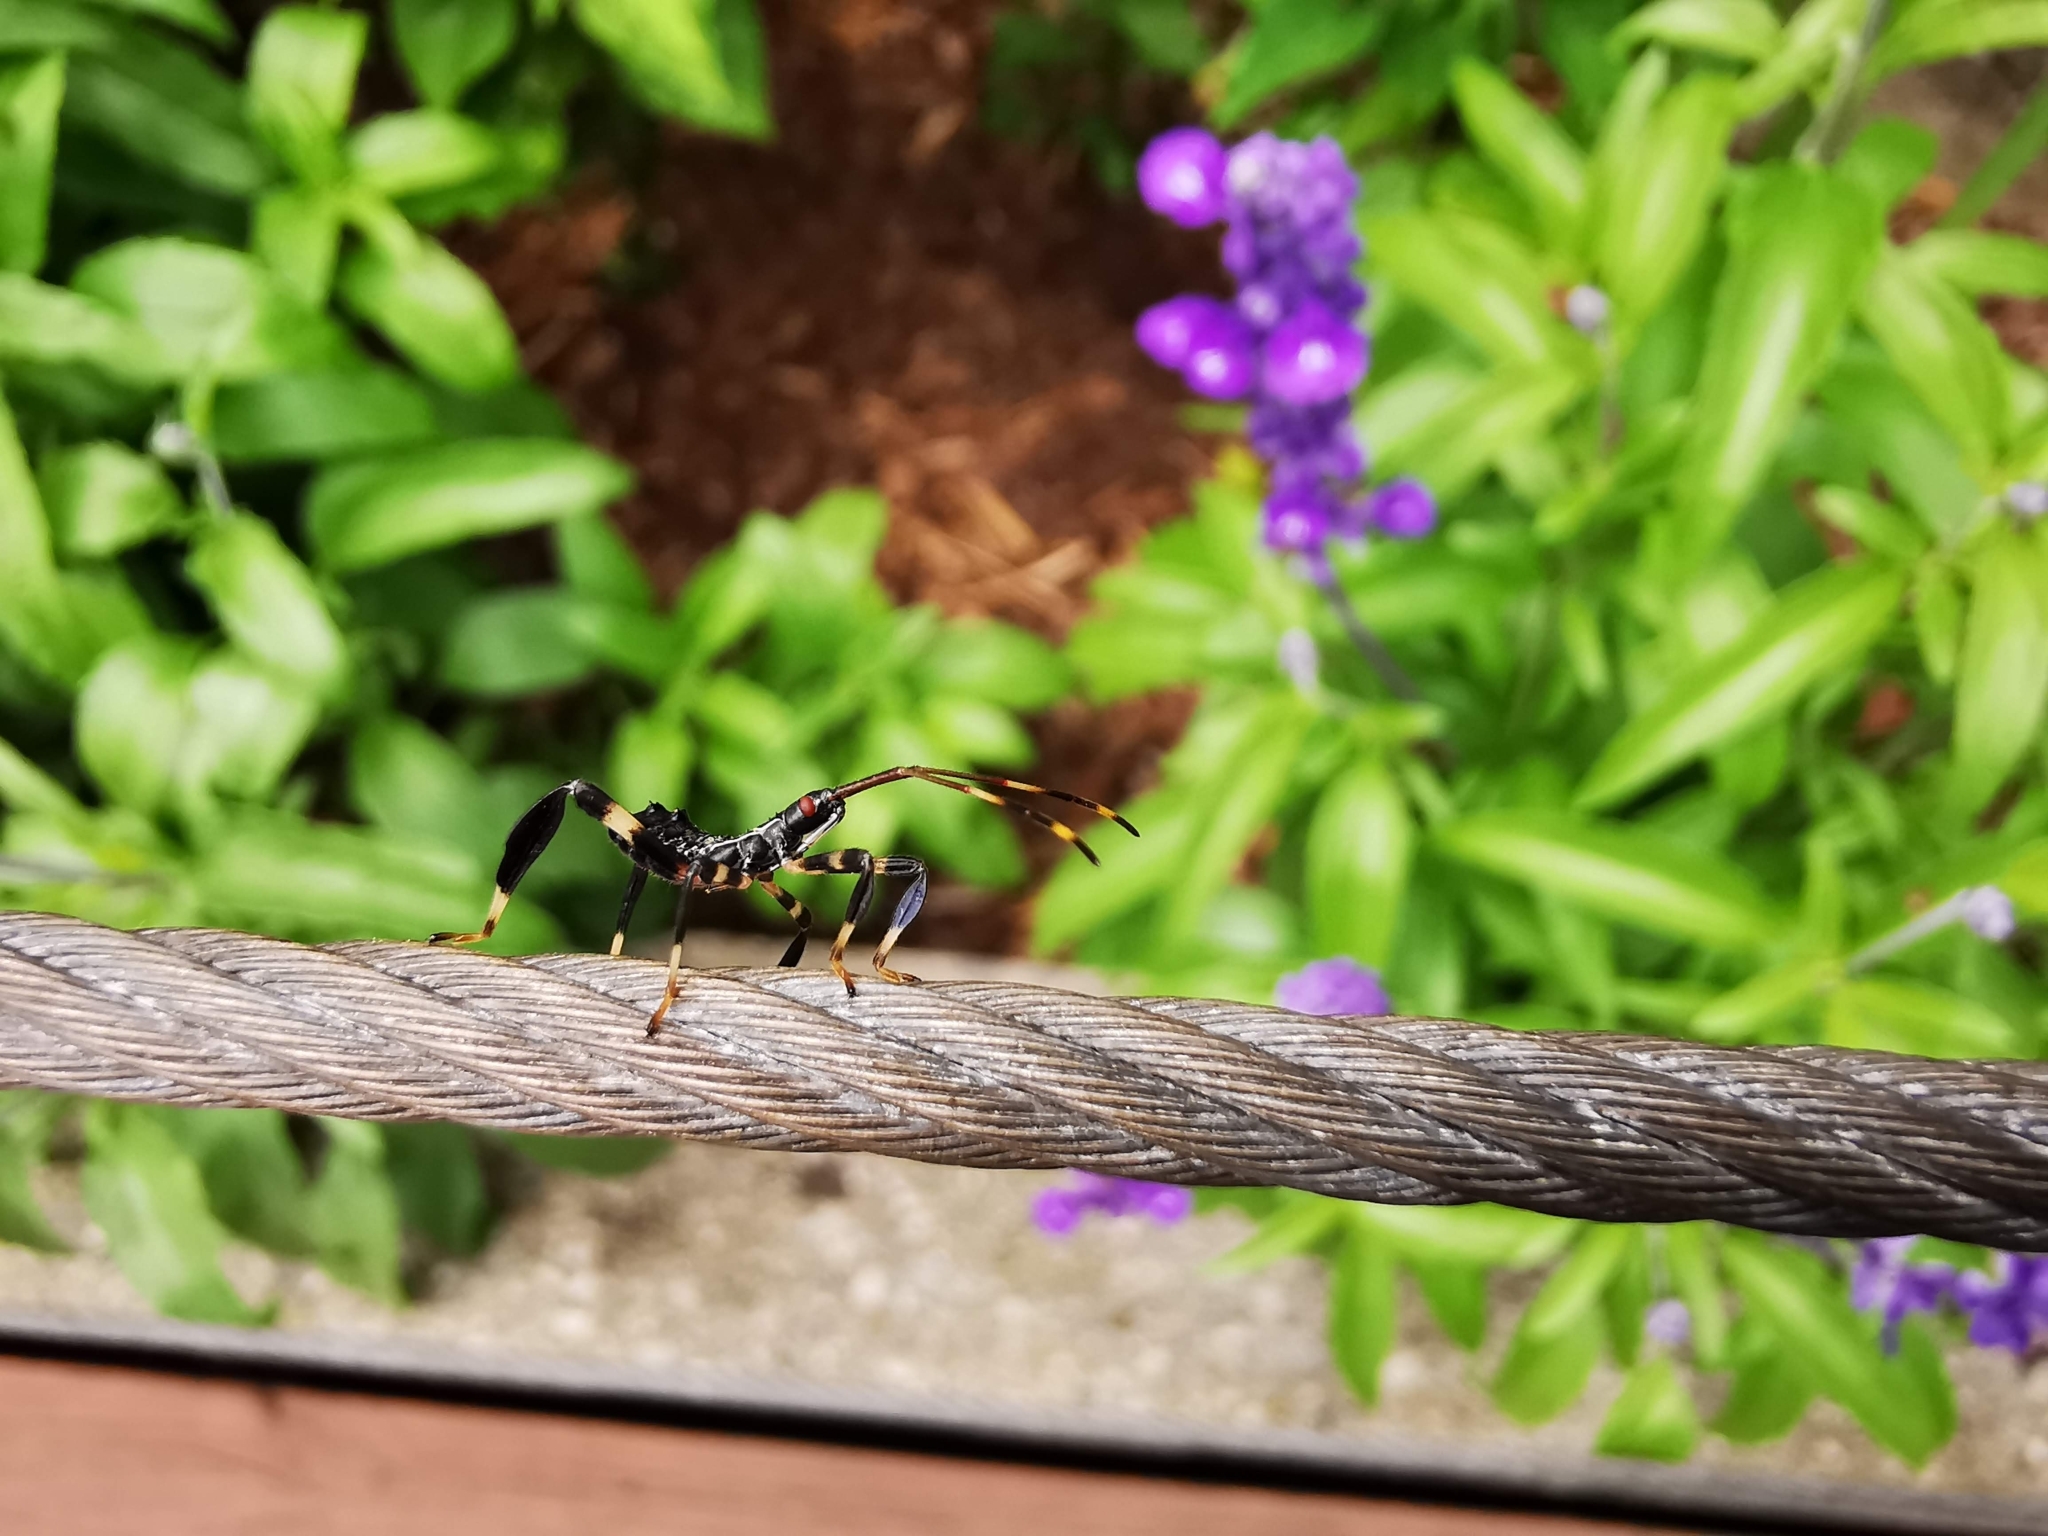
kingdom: Animalia
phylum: Arthropoda
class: Insecta
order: Hemiptera
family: Coreidae
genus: Acanthocephala
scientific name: Acanthocephala terminalis
